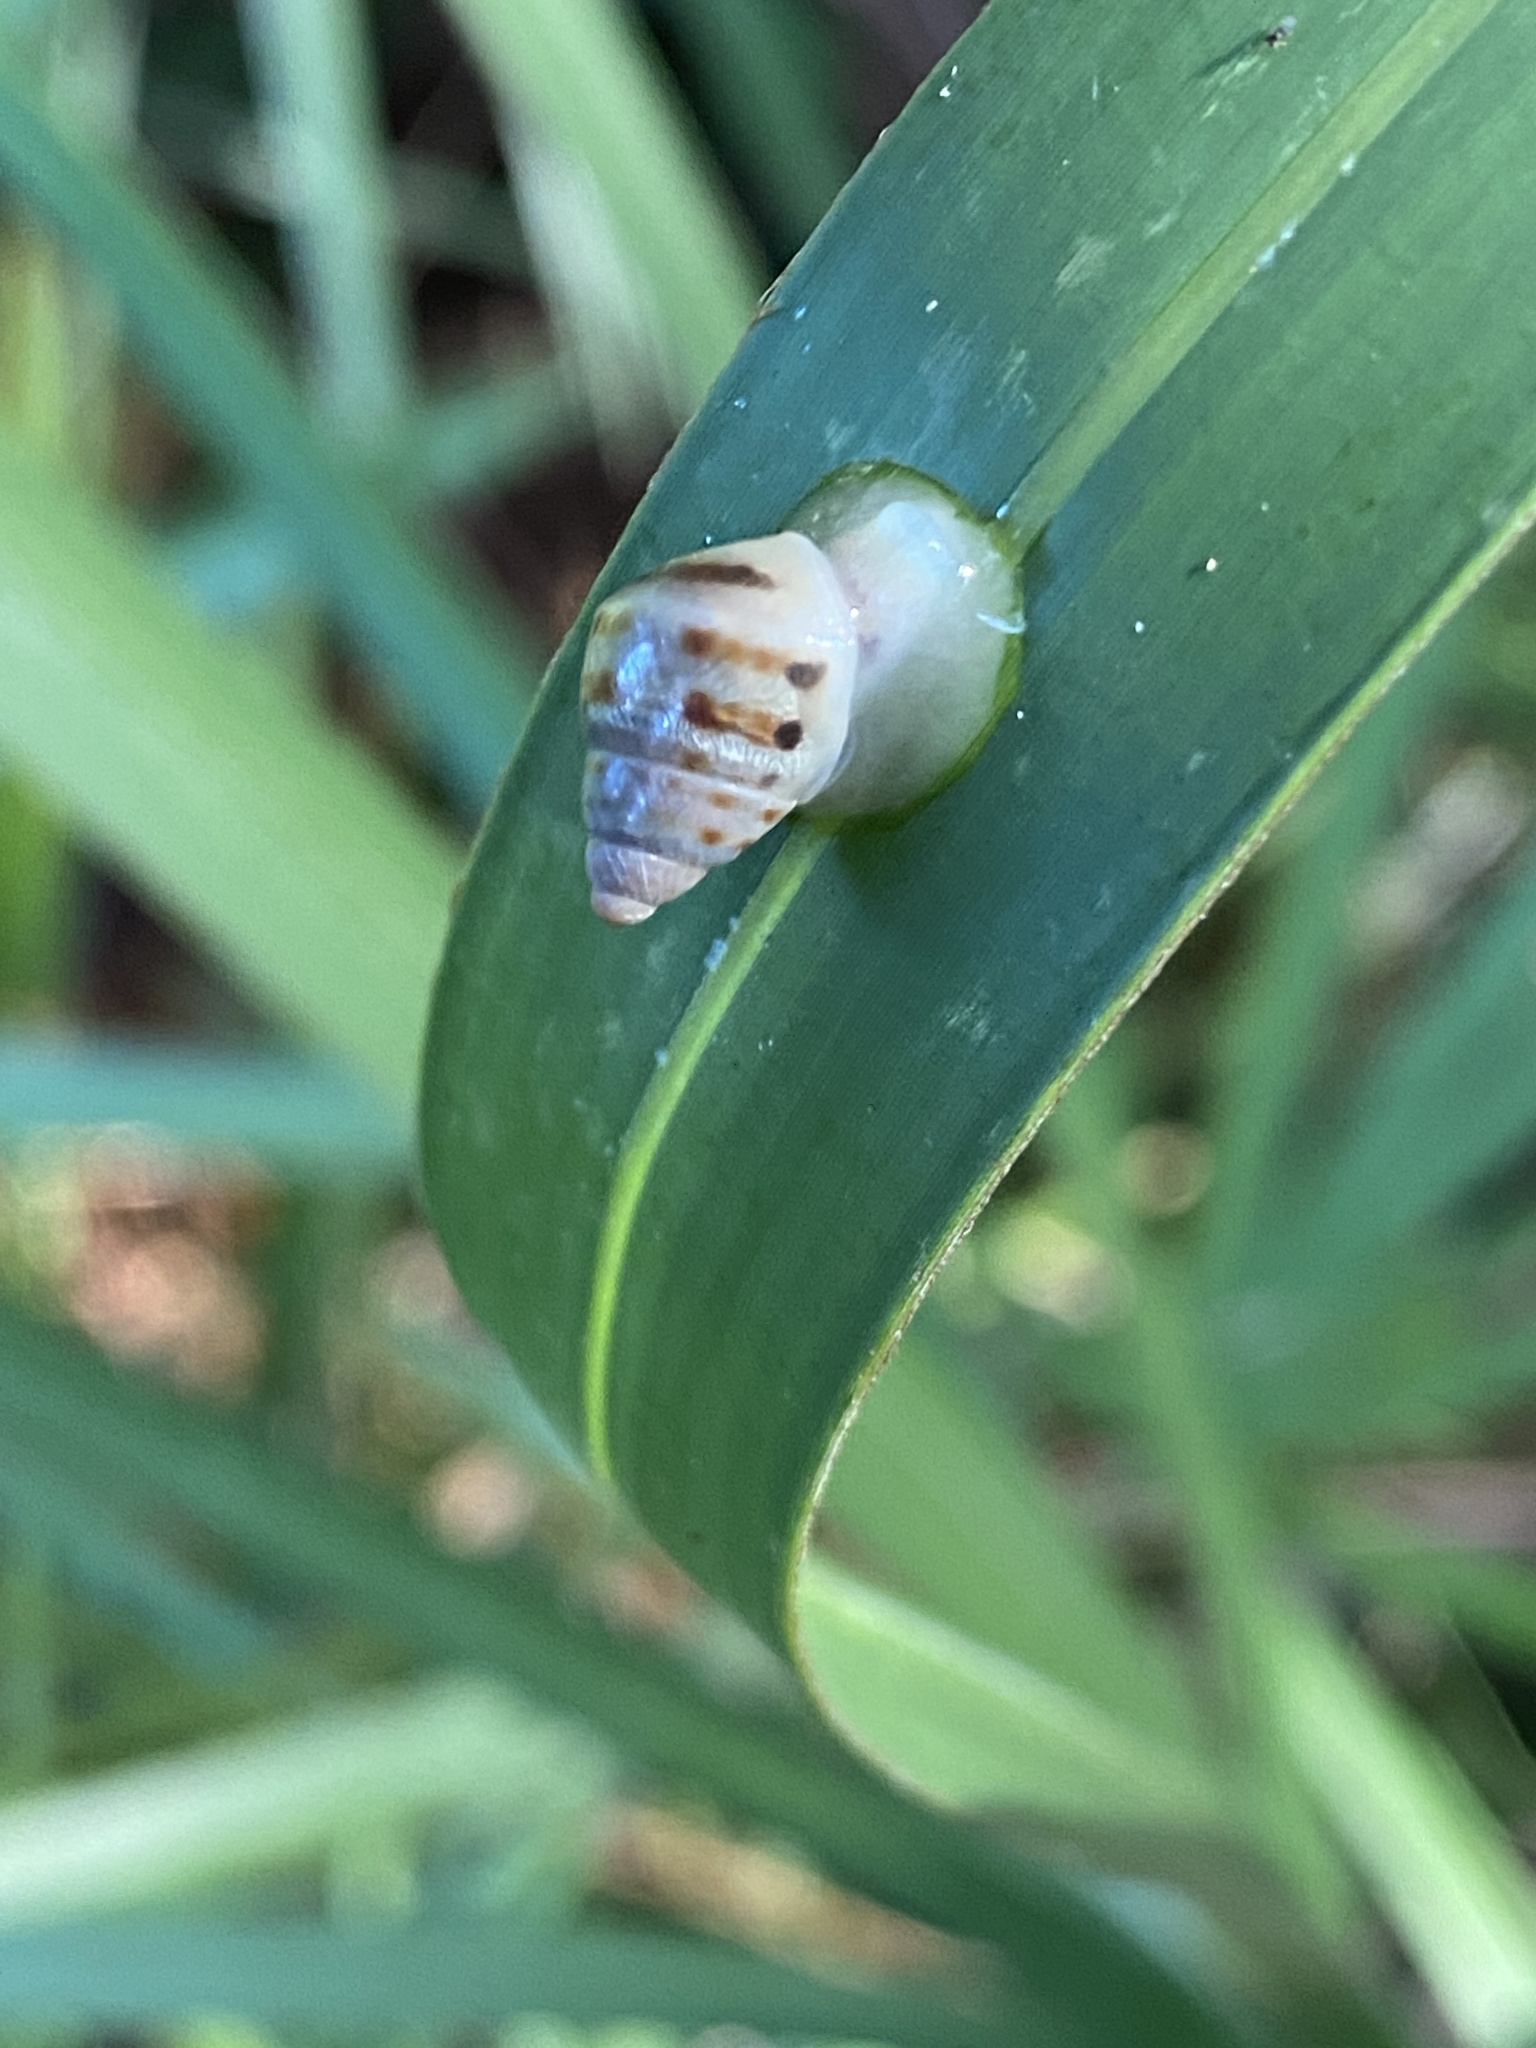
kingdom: Animalia
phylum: Mollusca
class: Gastropoda
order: Stylommatophora
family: Bulimulidae
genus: Drymaeus
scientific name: Drymaeus dormani
